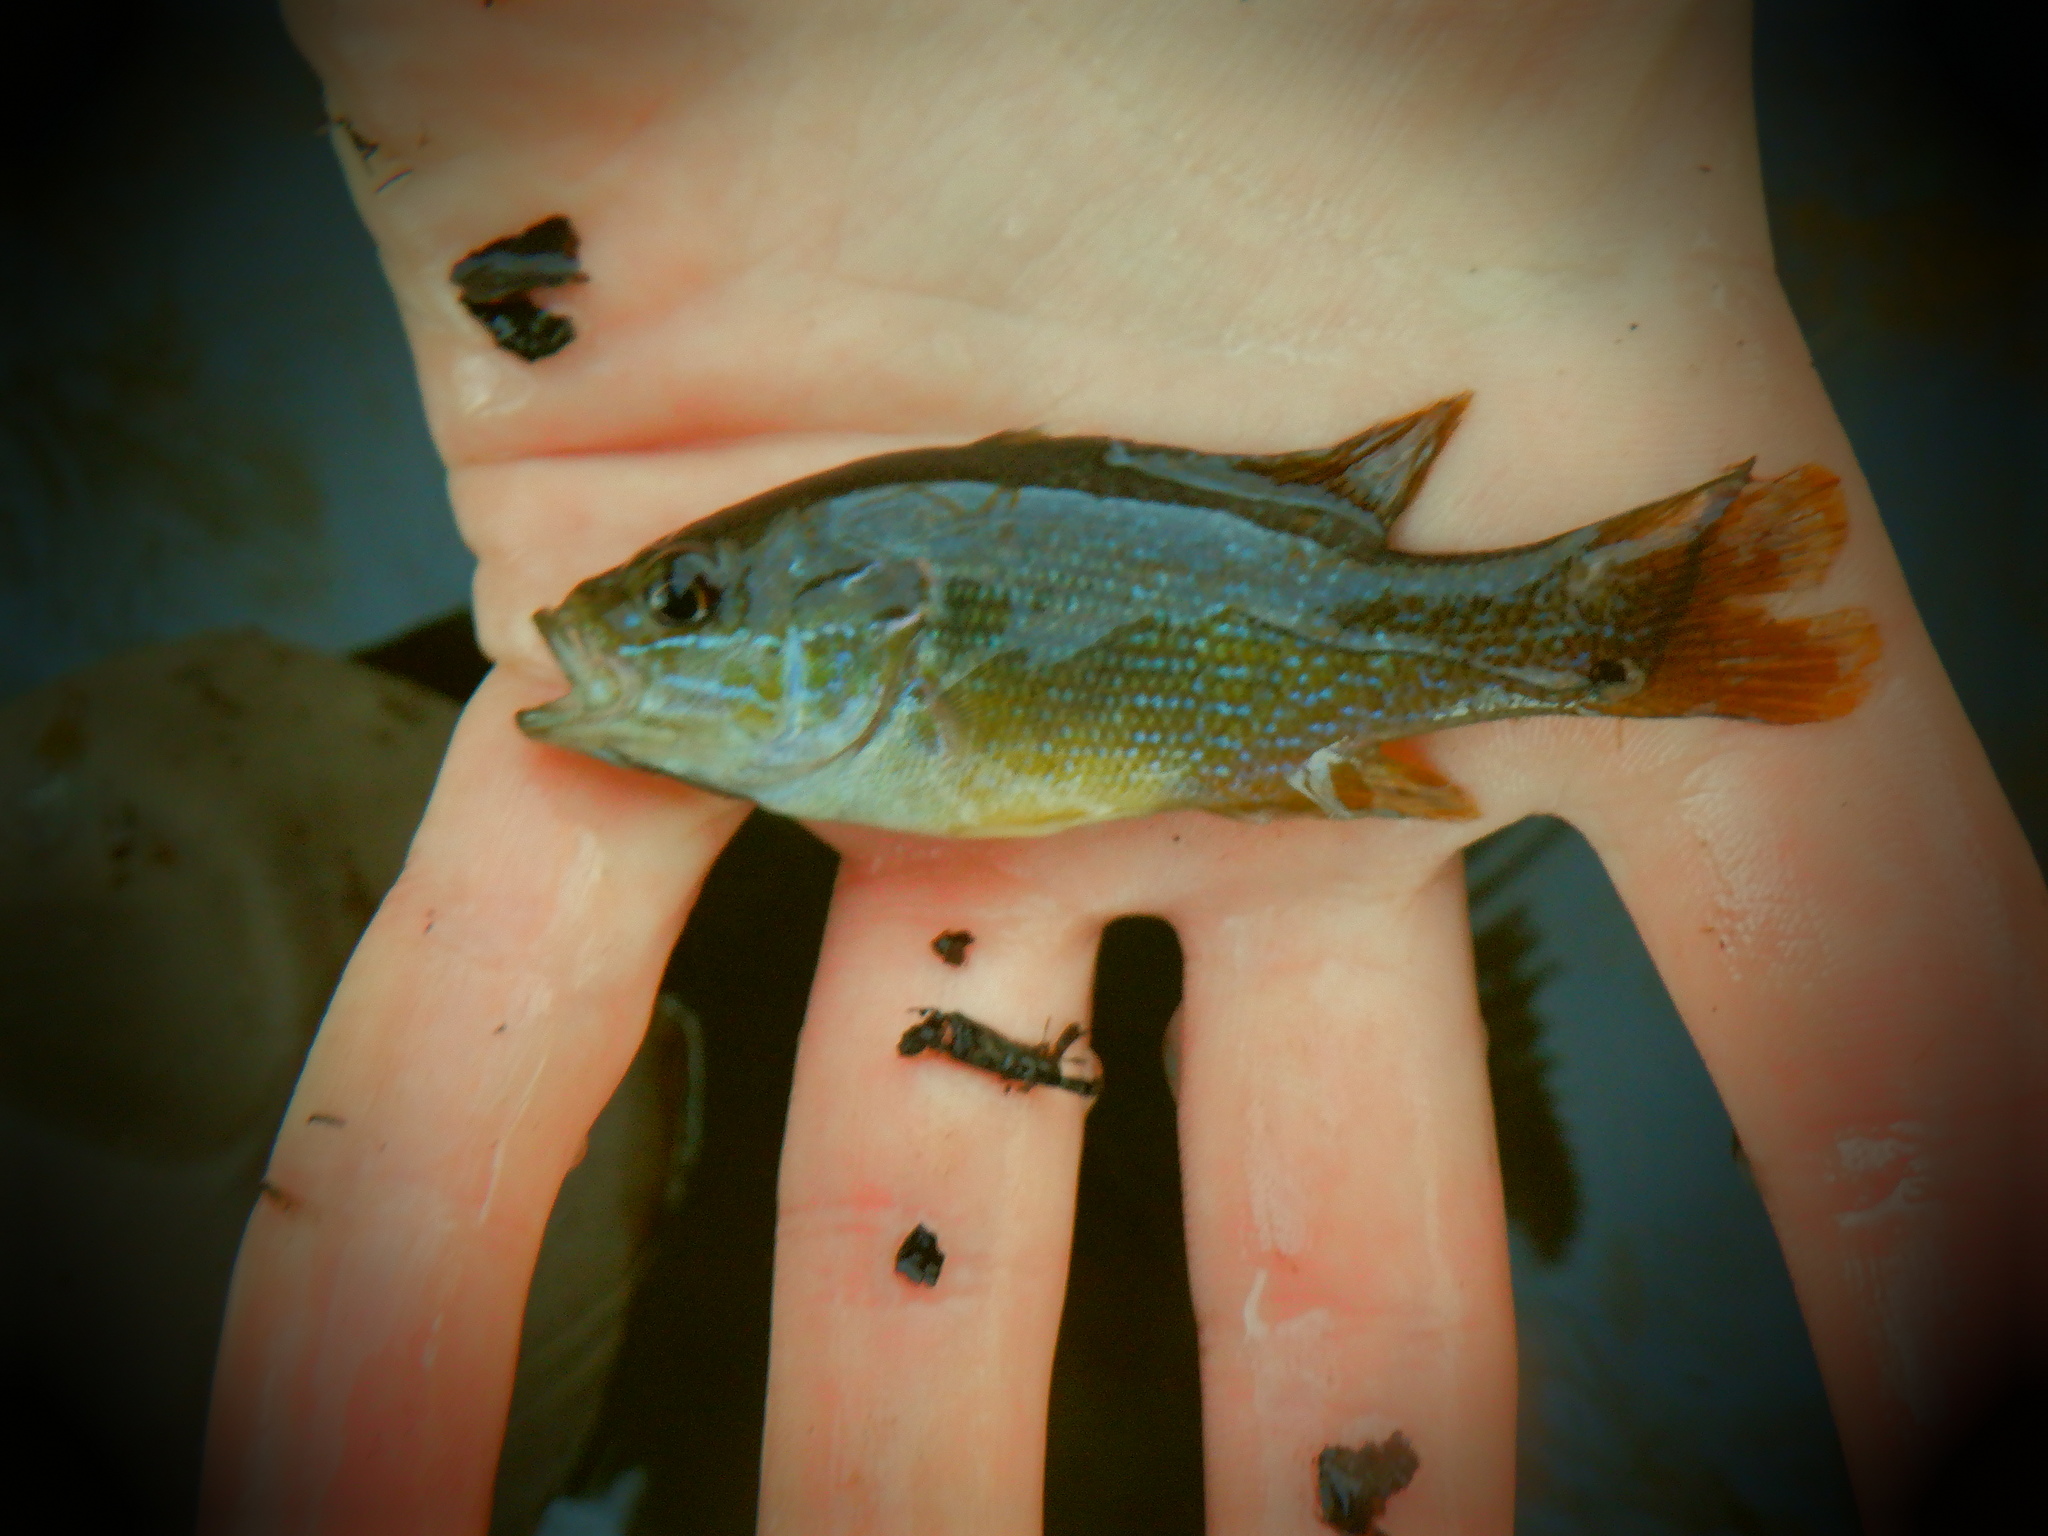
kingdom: Animalia
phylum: Chordata
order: Perciformes
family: Centrarchidae
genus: Lepomis
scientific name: Lepomis cyanellus
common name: Green sunfish
